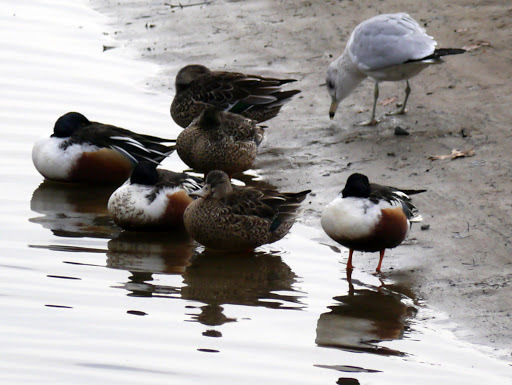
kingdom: Animalia
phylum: Chordata
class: Aves
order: Anseriformes
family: Anatidae
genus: Spatula
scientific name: Spatula clypeata
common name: Northern shoveler
